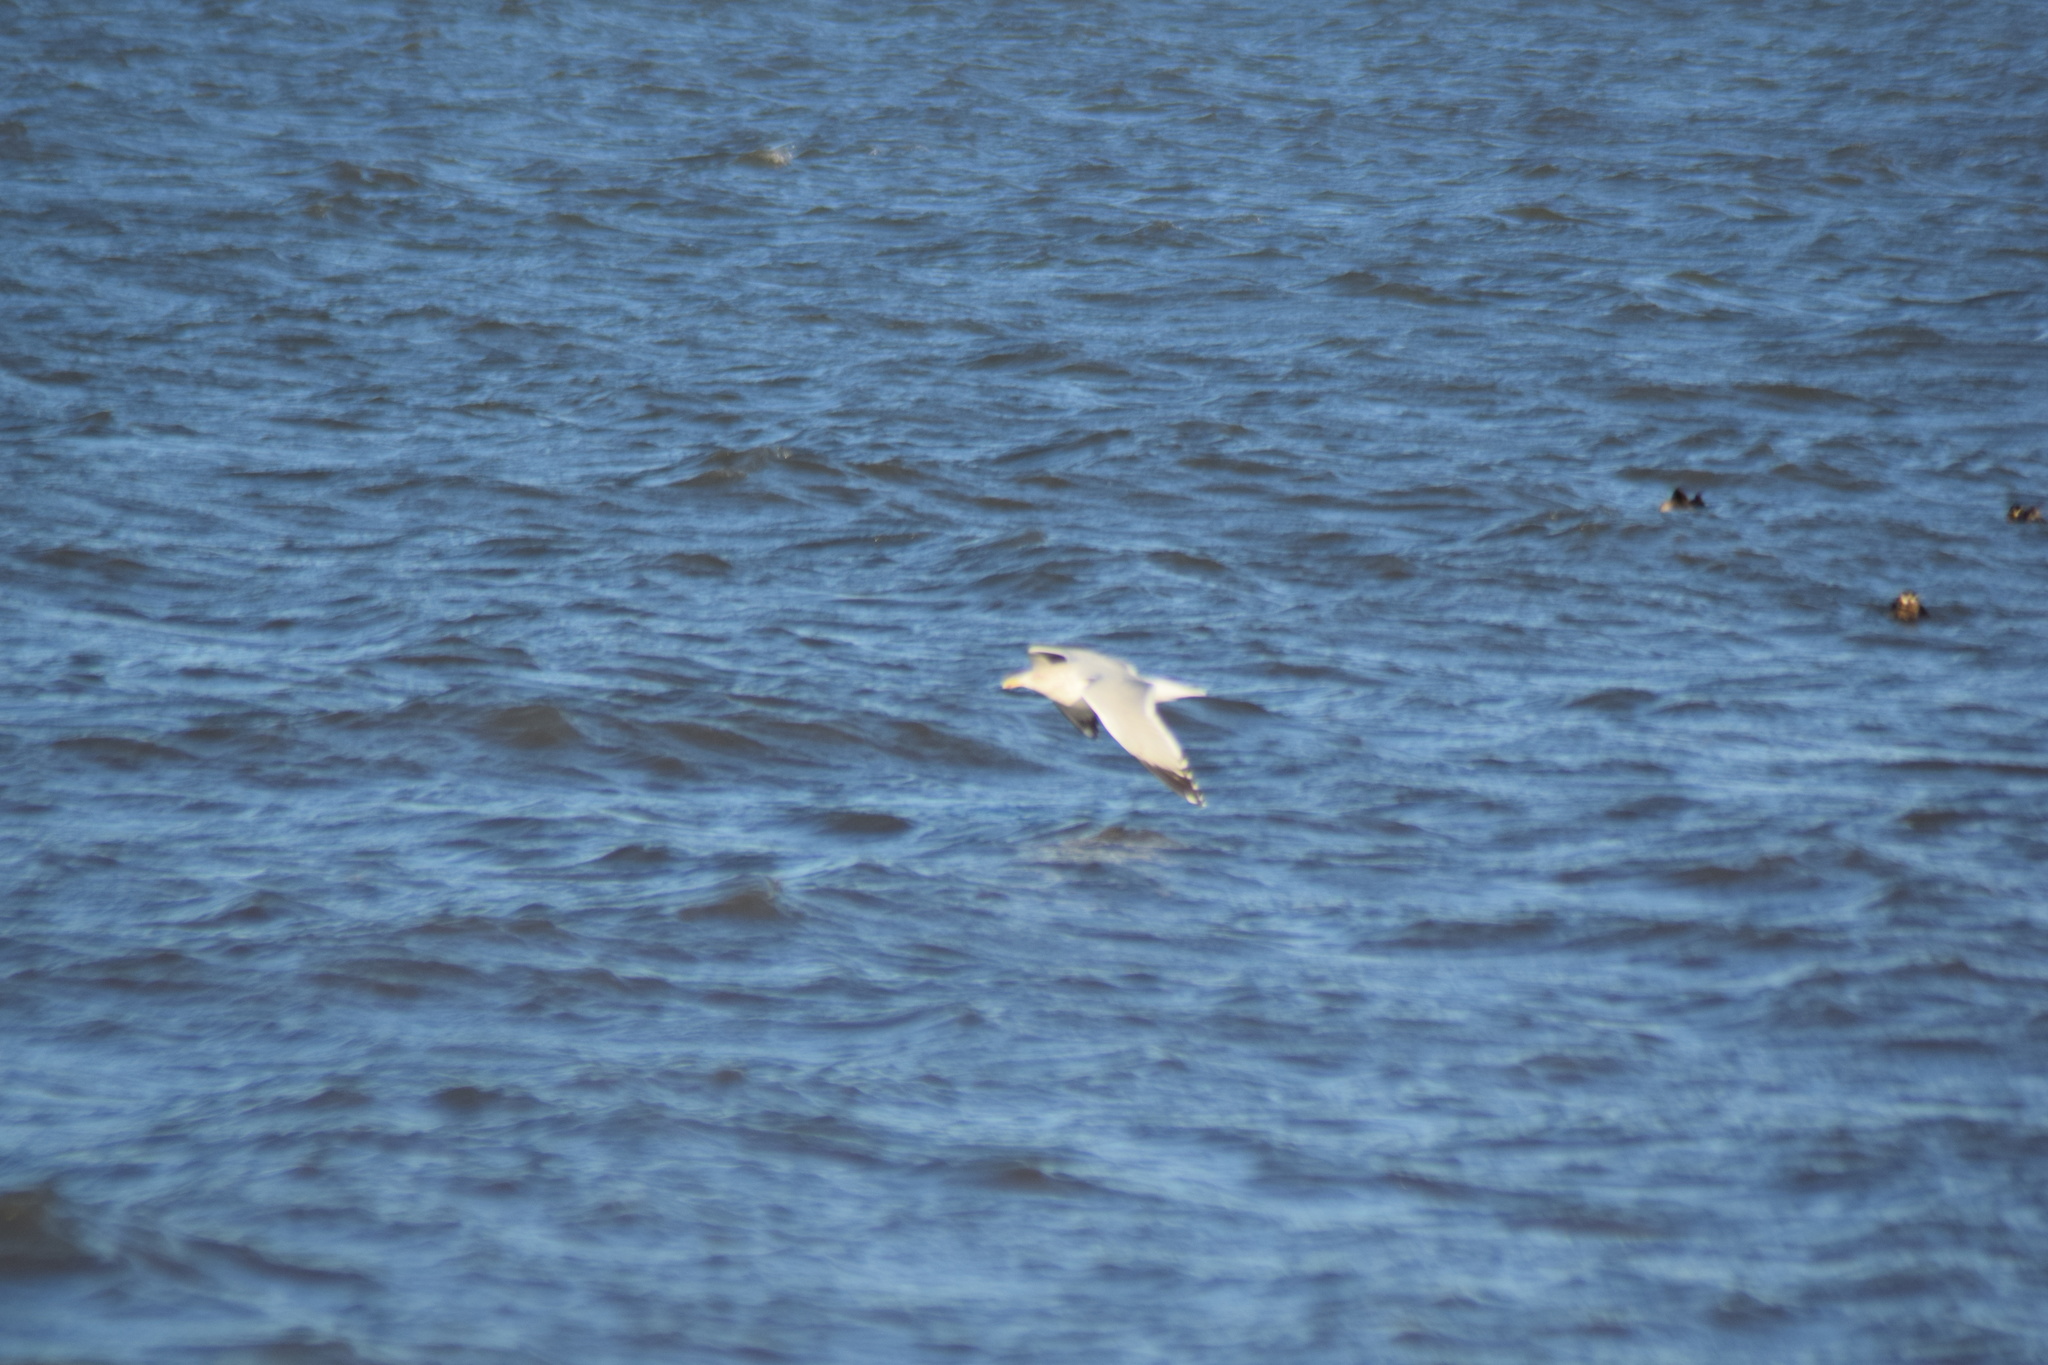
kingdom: Animalia
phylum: Chordata
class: Aves
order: Charadriiformes
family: Laridae
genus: Larus
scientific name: Larus argentatus
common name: Herring gull
